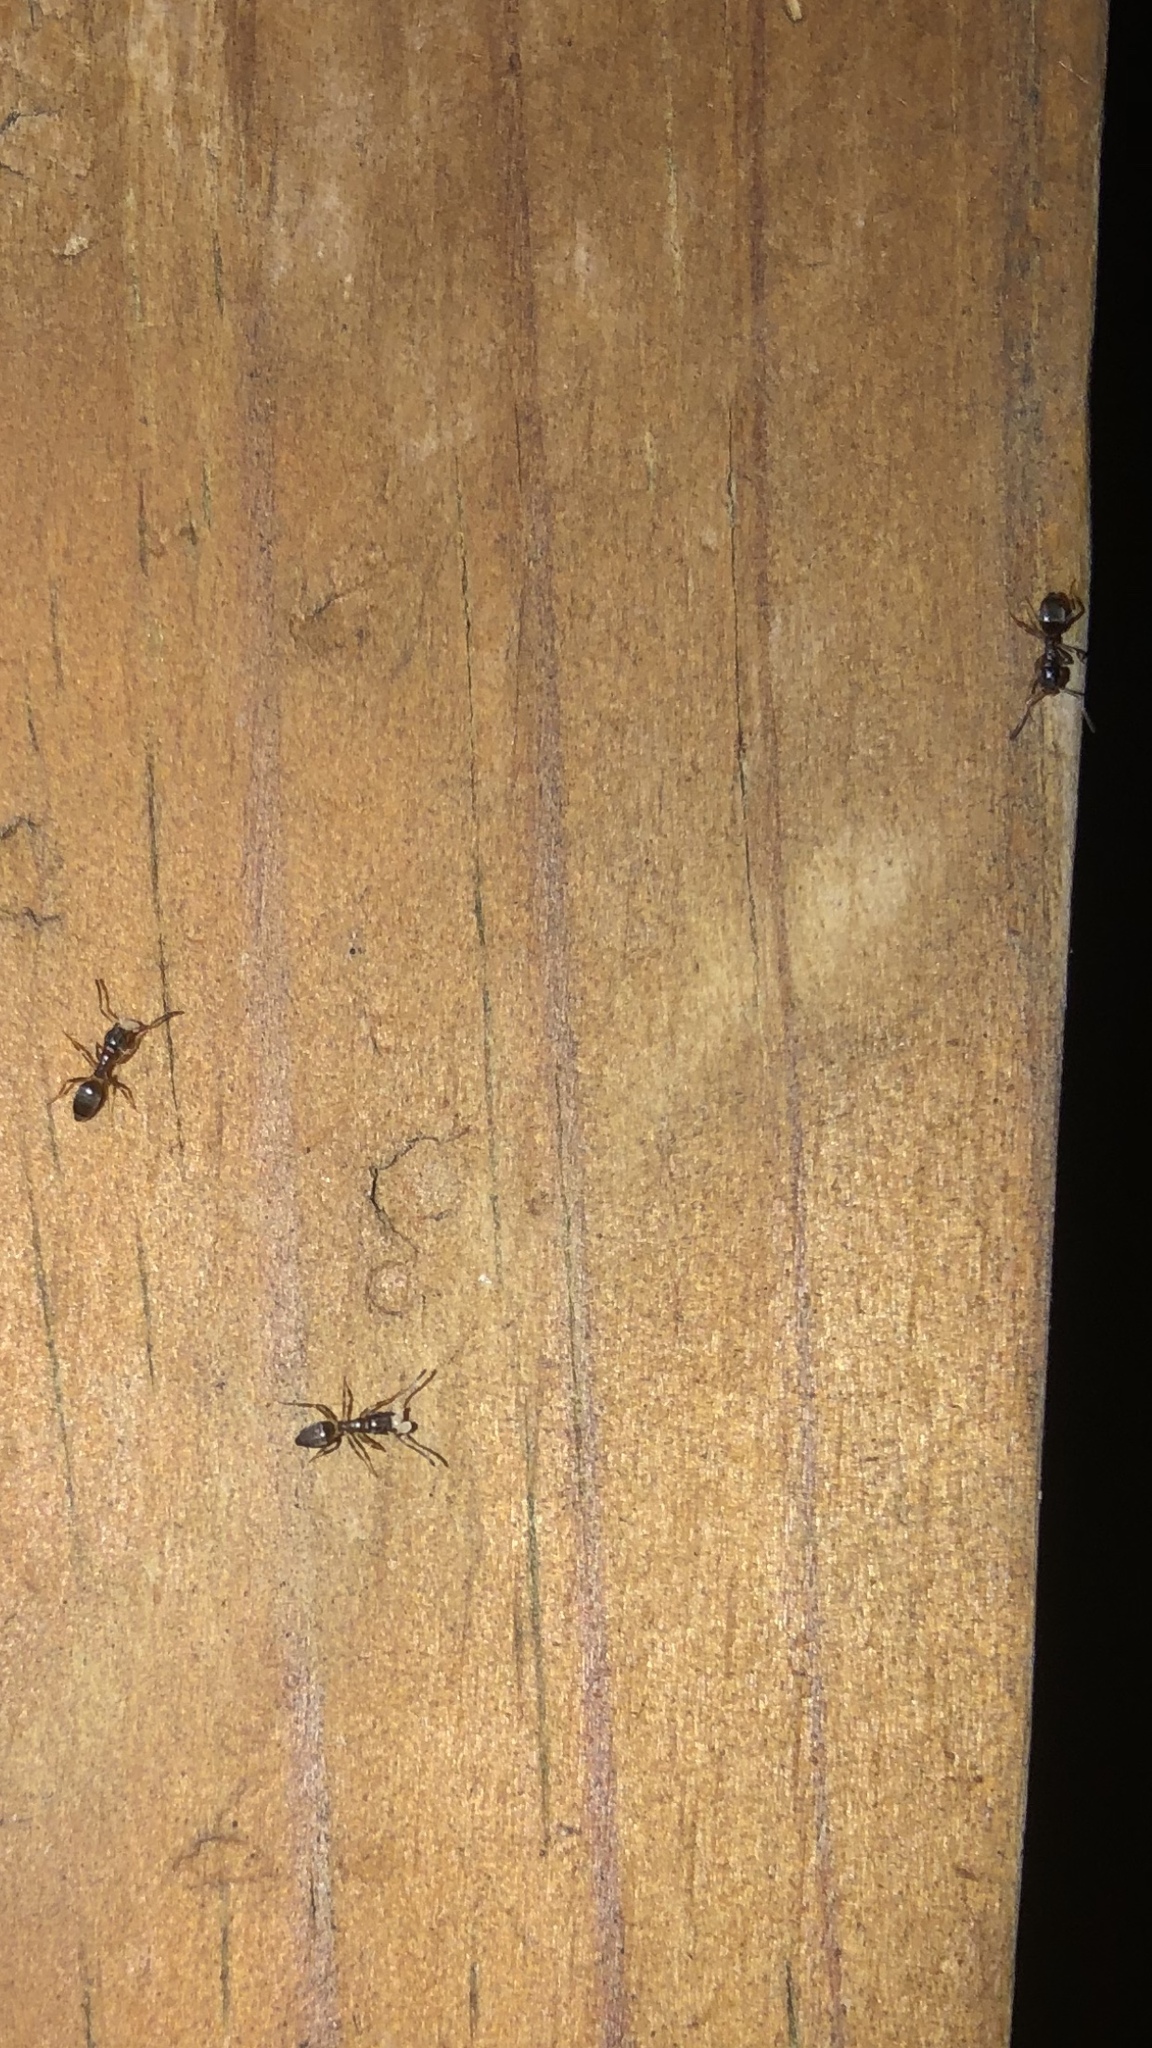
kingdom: Animalia
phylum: Arthropoda
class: Insecta
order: Hymenoptera
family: Formicidae
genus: Tapinoma
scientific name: Tapinoma sessile
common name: Odorous house ant
